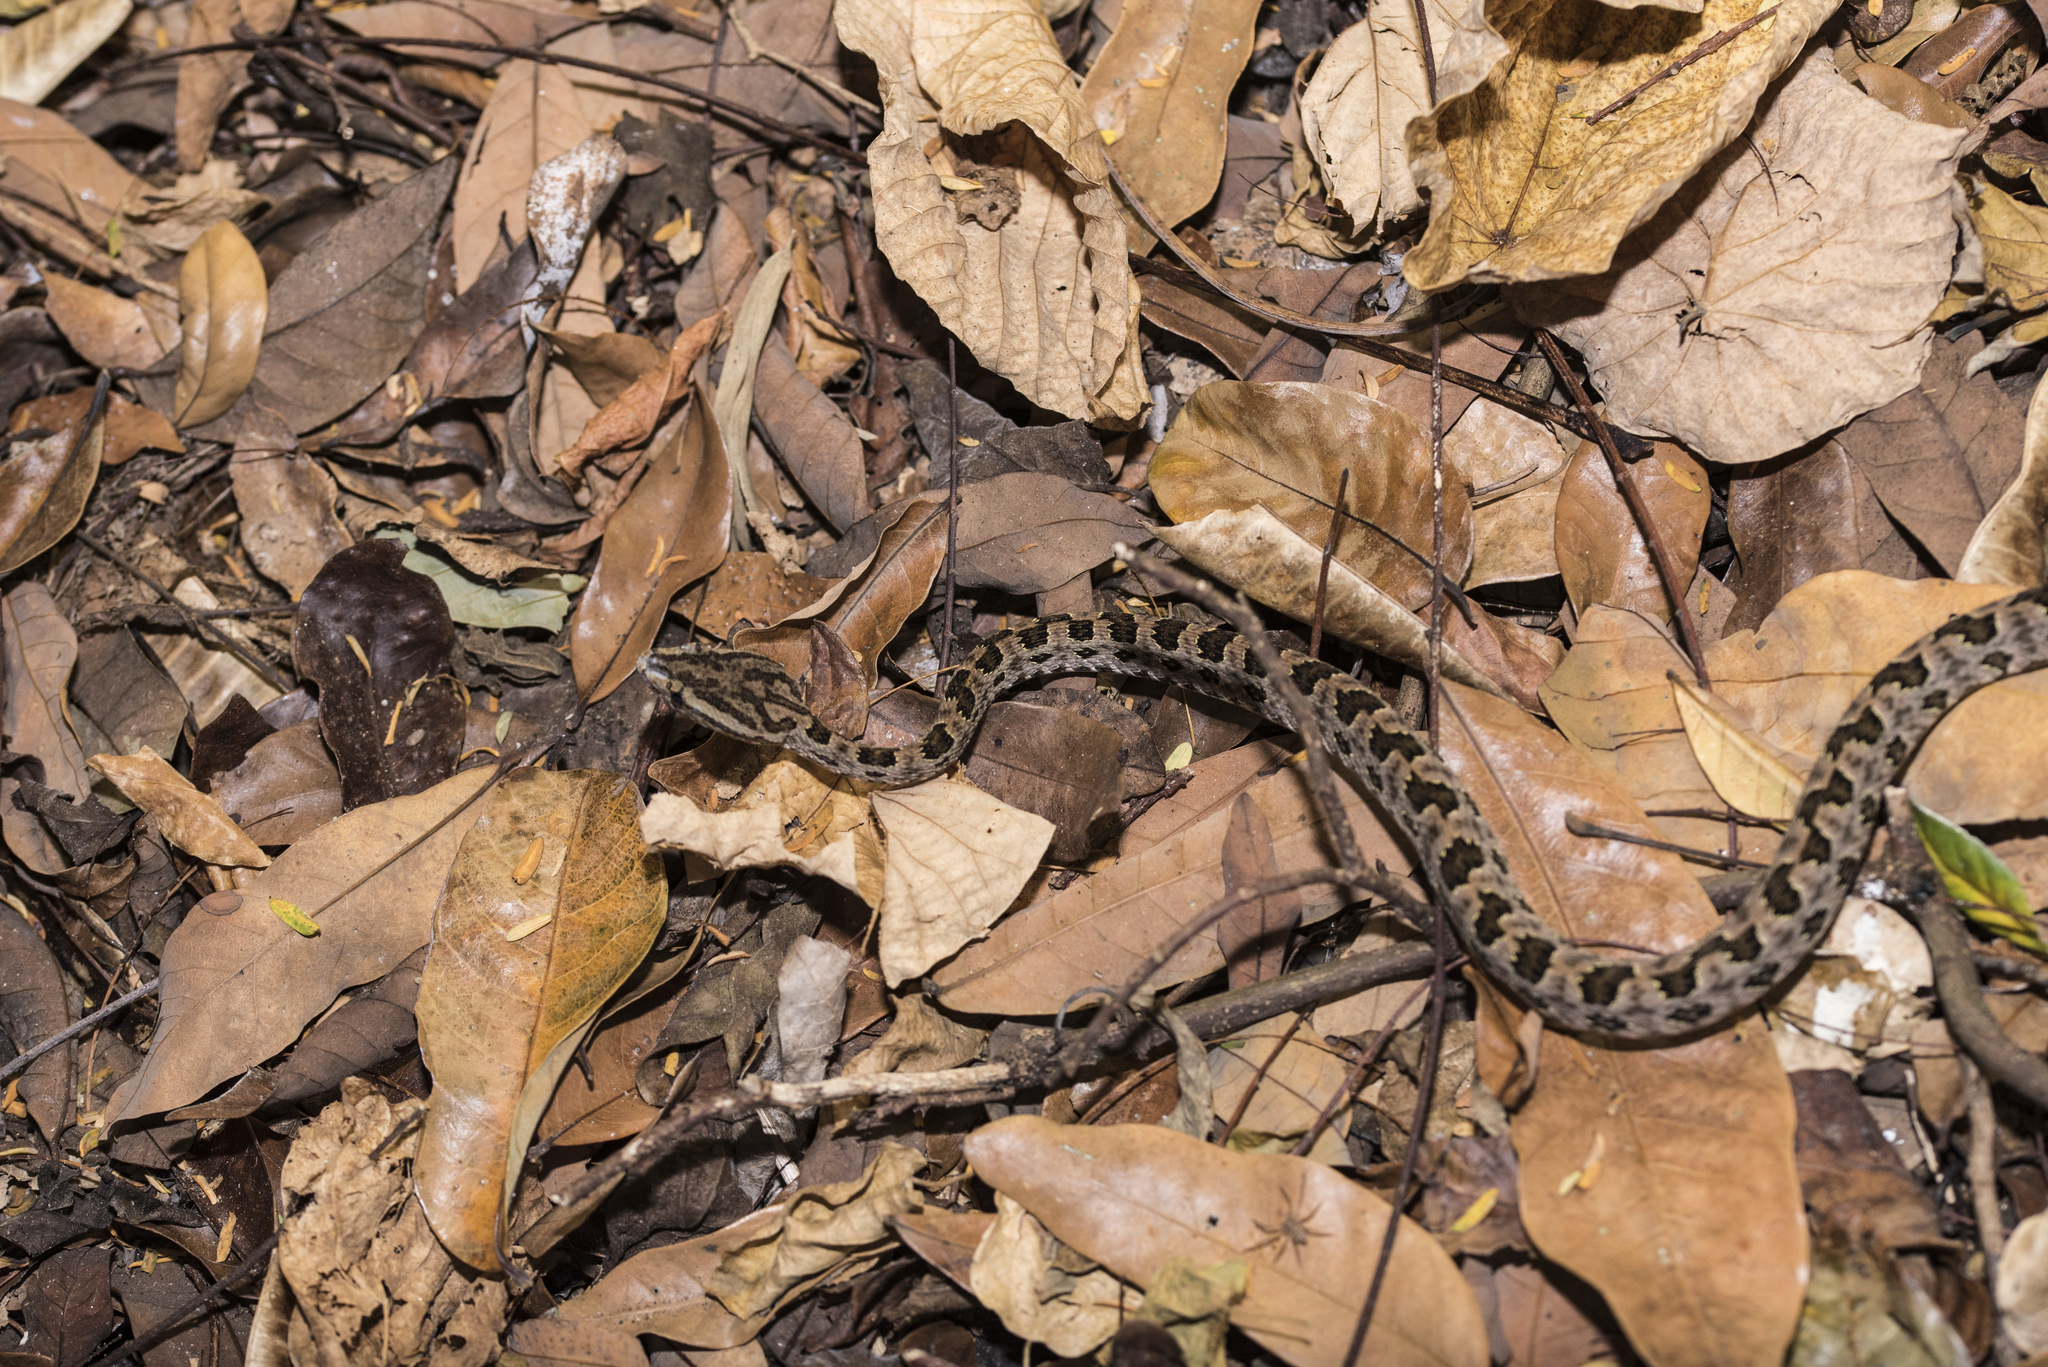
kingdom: Animalia
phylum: Chordata
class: Squamata
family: Viperidae
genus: Protobothrops
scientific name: Protobothrops mucrosquamatus
